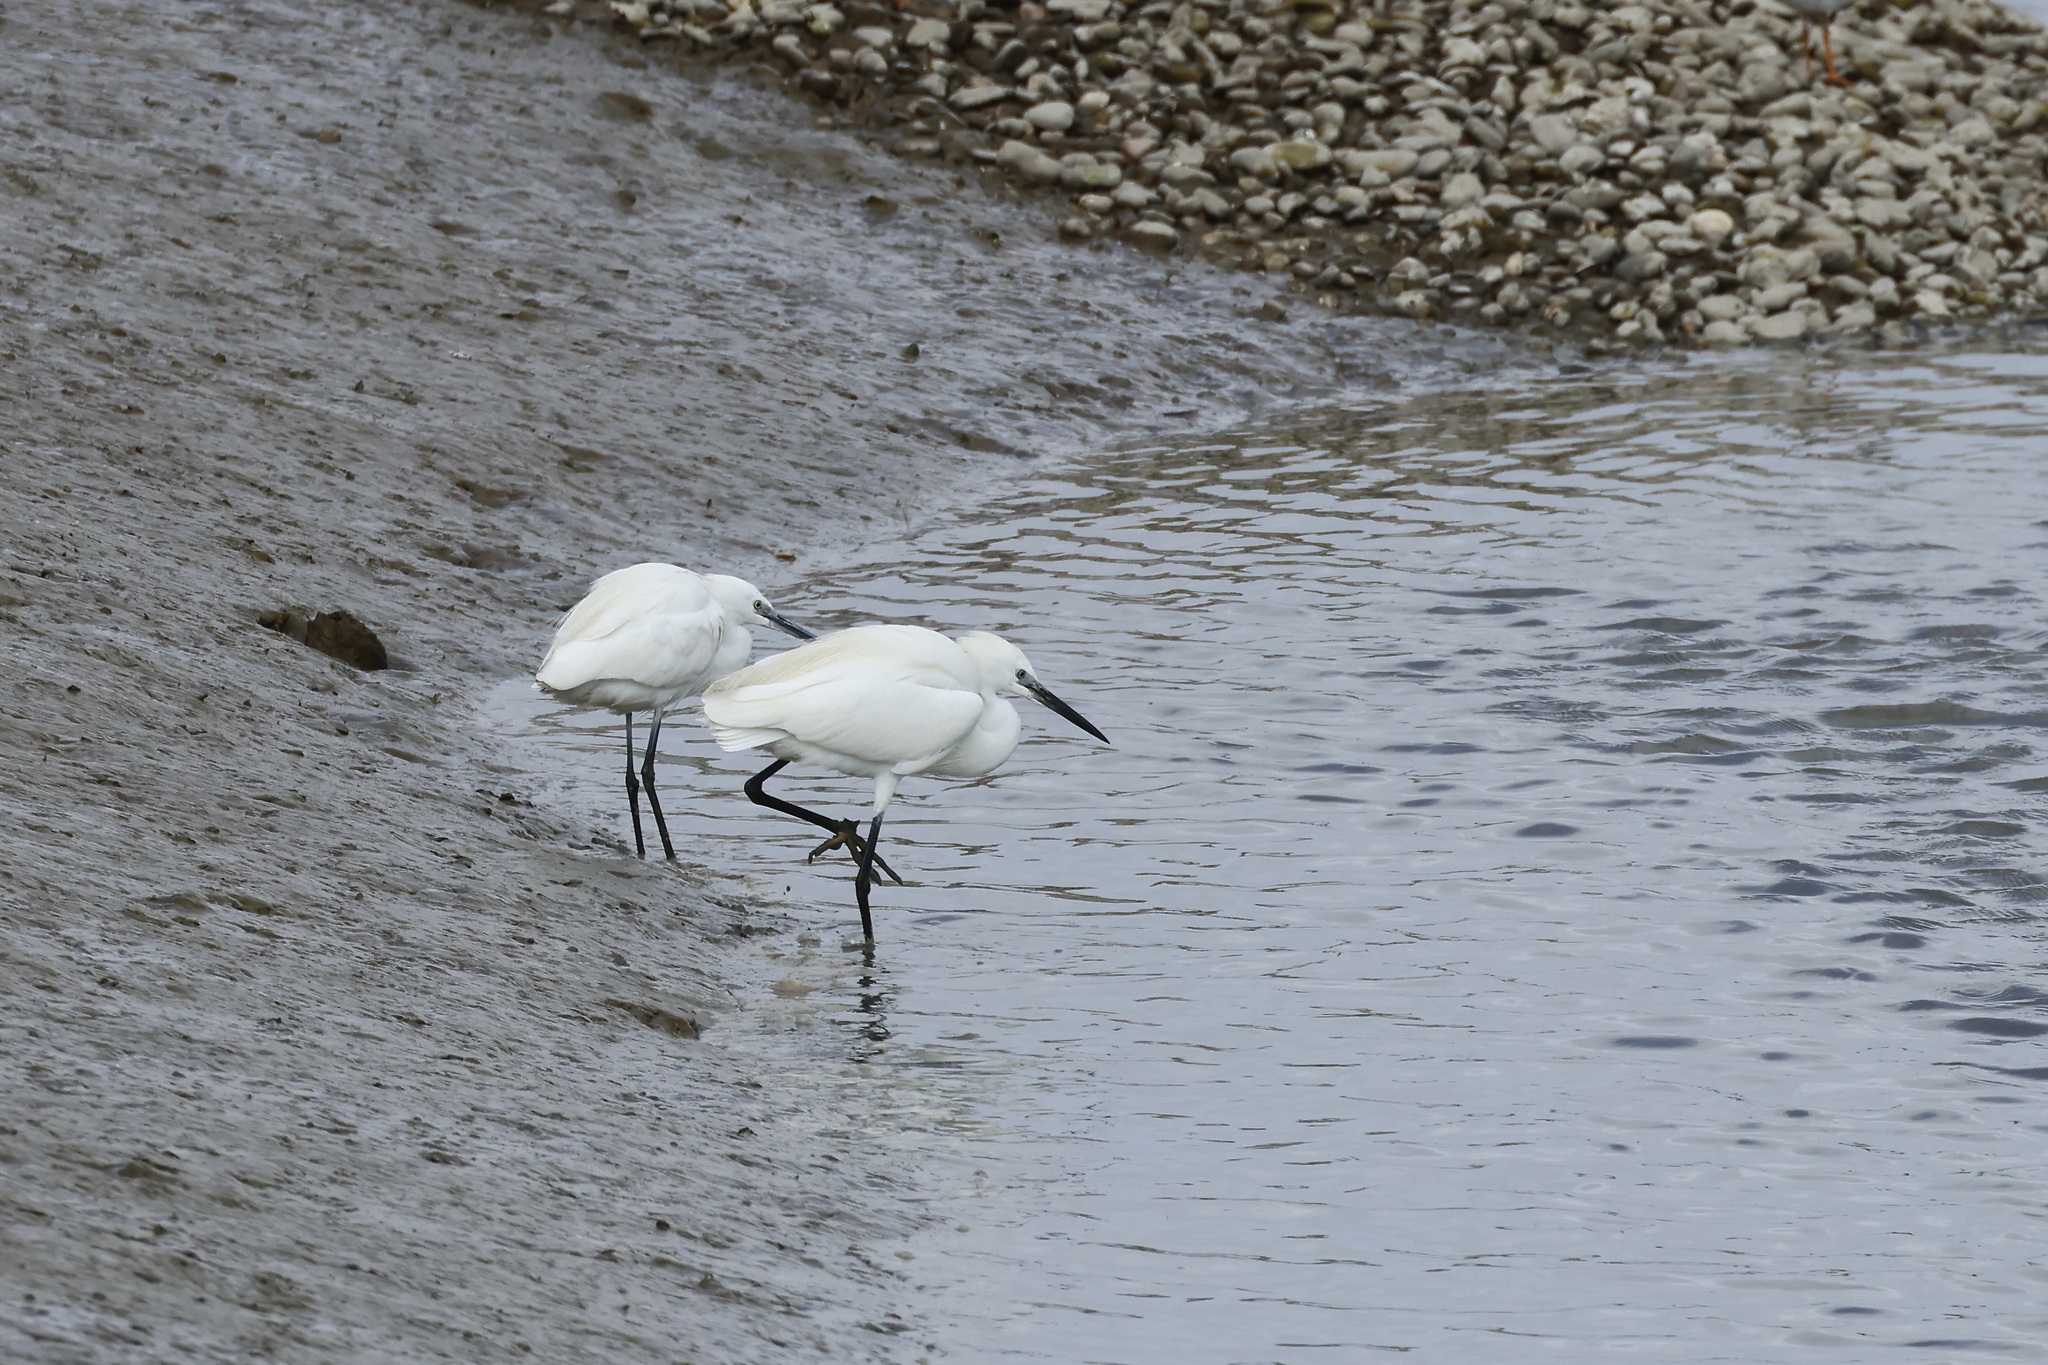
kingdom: Animalia
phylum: Chordata
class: Aves
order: Pelecaniformes
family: Ardeidae
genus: Egretta
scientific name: Egretta garzetta
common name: Little egret
